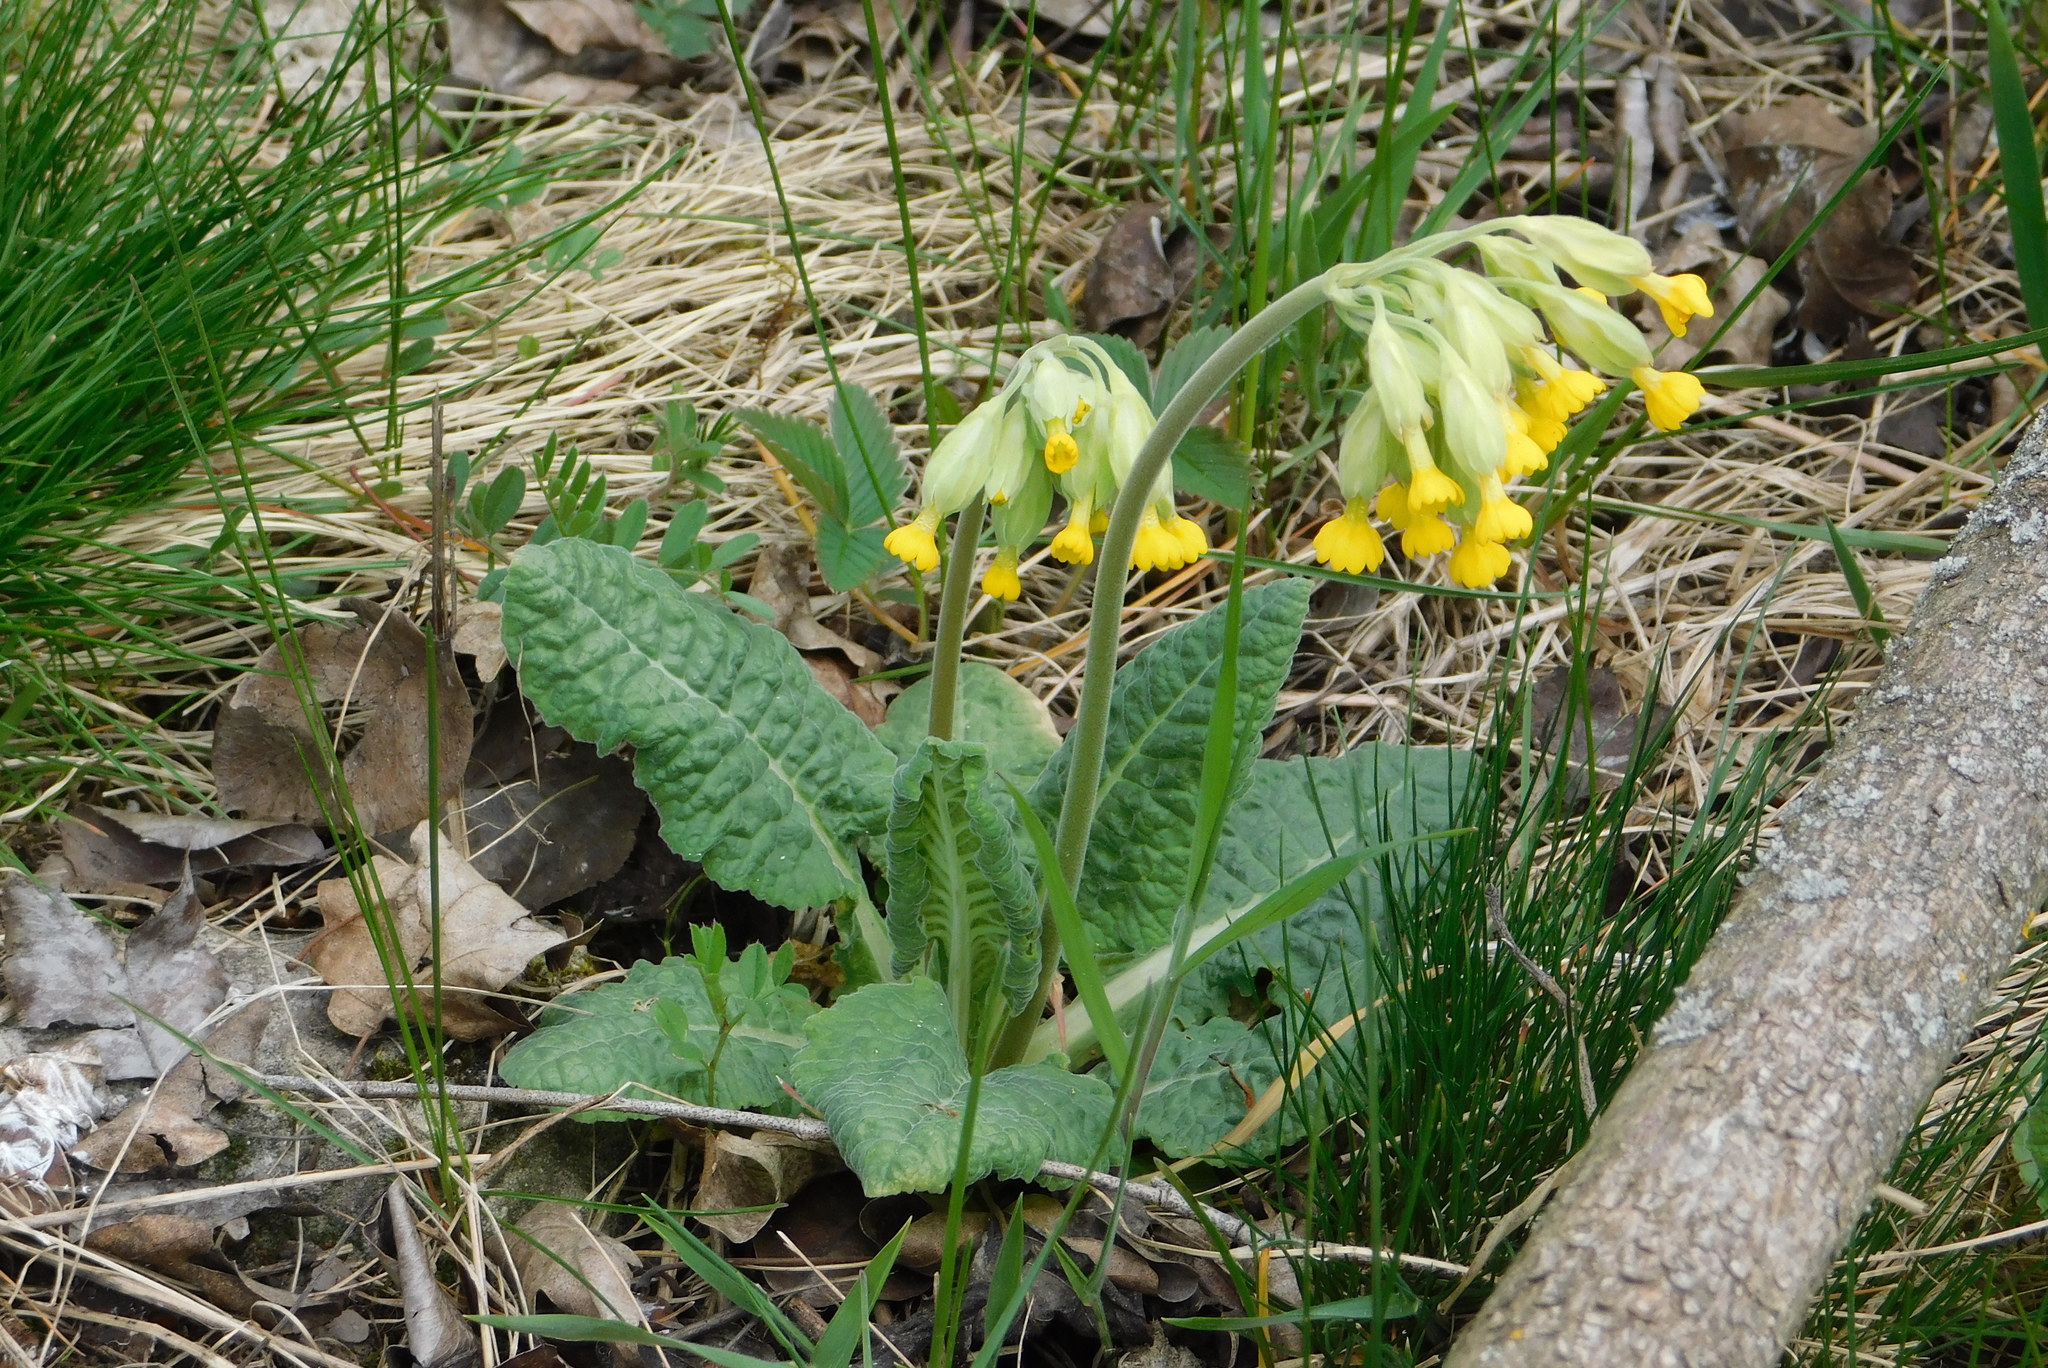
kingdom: Plantae
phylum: Tracheophyta
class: Magnoliopsida
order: Ericales
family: Primulaceae
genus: Primula
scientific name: Primula veris
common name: Cowslip
